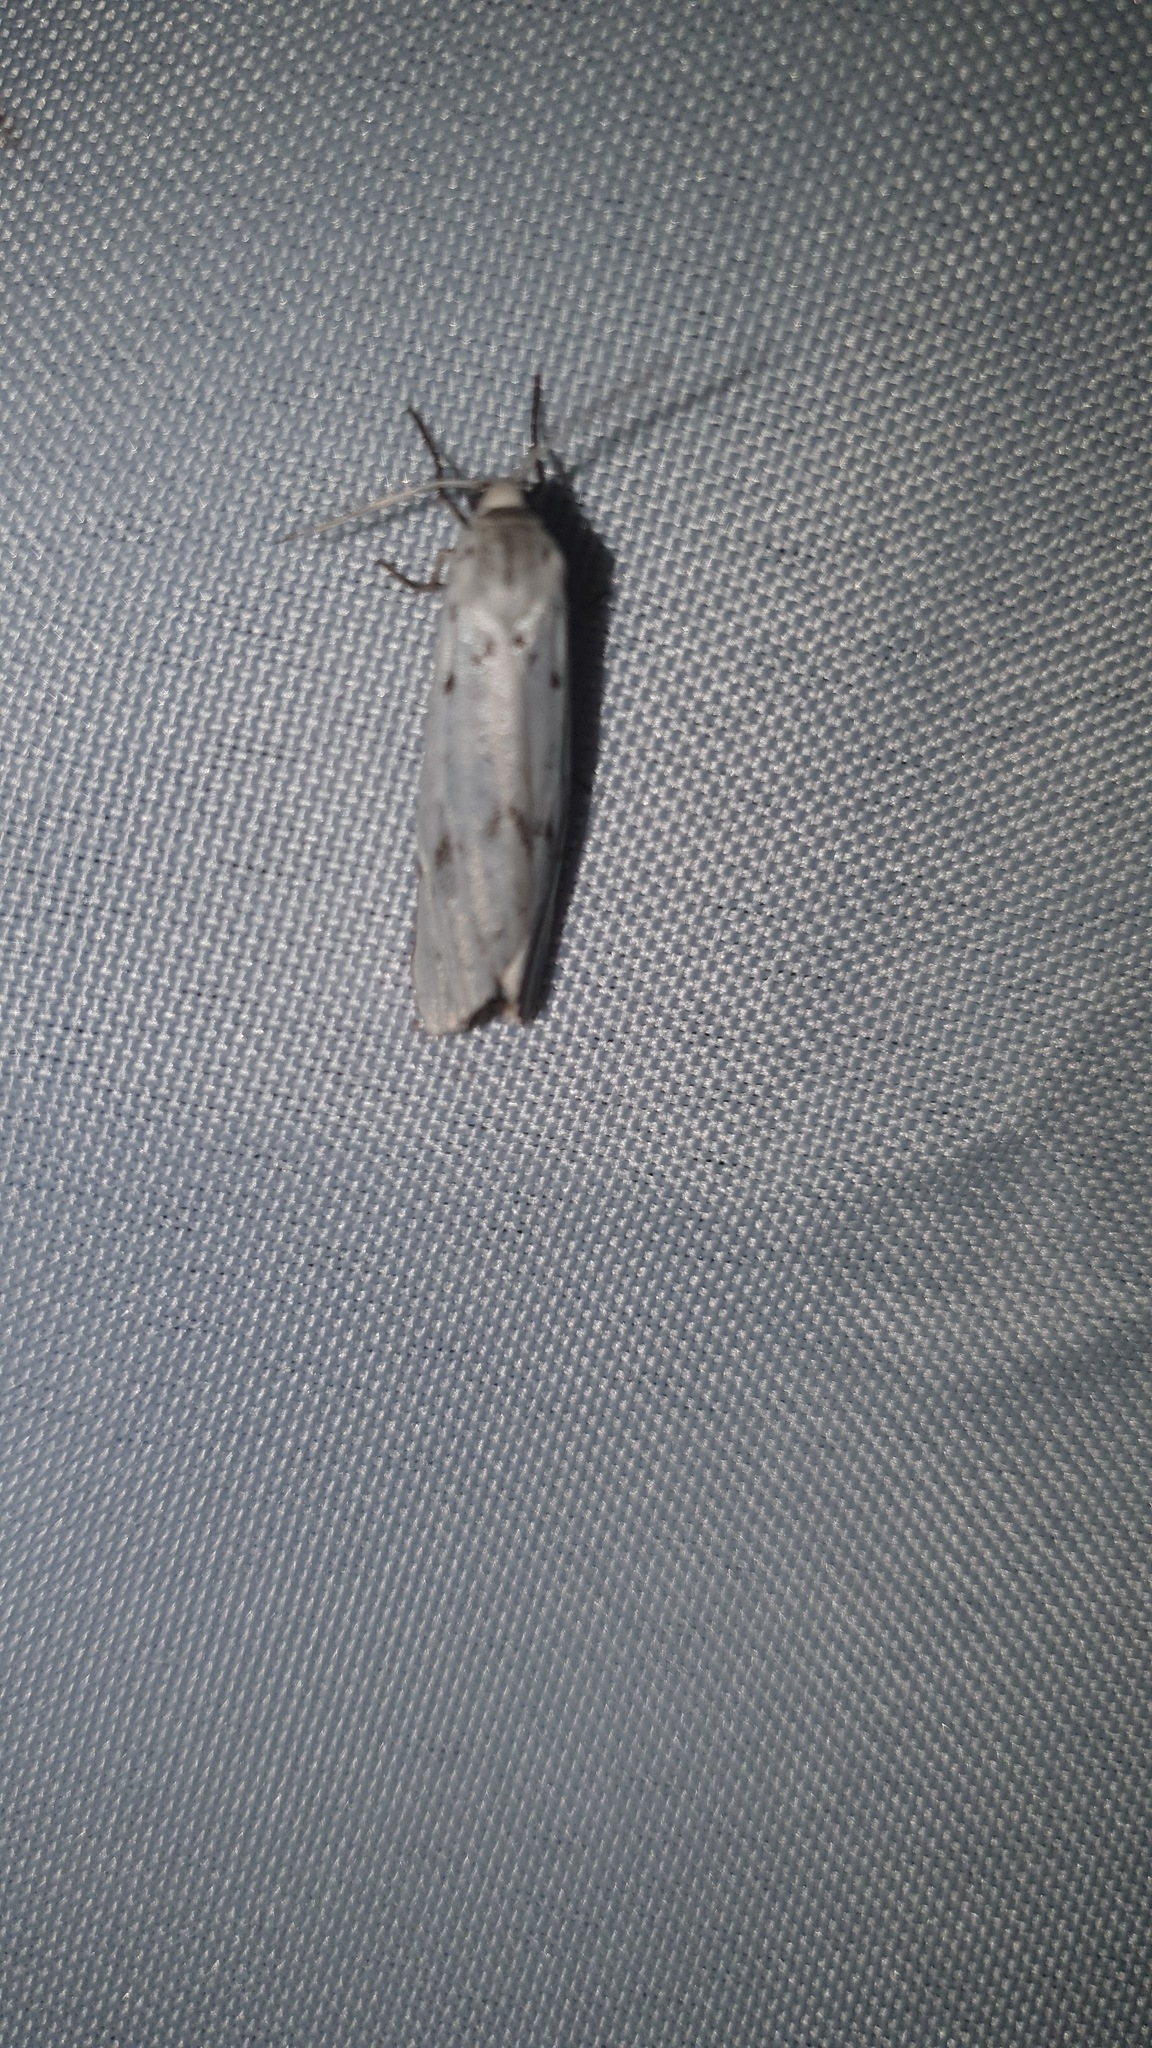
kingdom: Animalia
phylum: Arthropoda
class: Insecta
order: Lepidoptera
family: Erebidae
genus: Coscinia
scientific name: Coscinia cribraria
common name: Speckled footman
